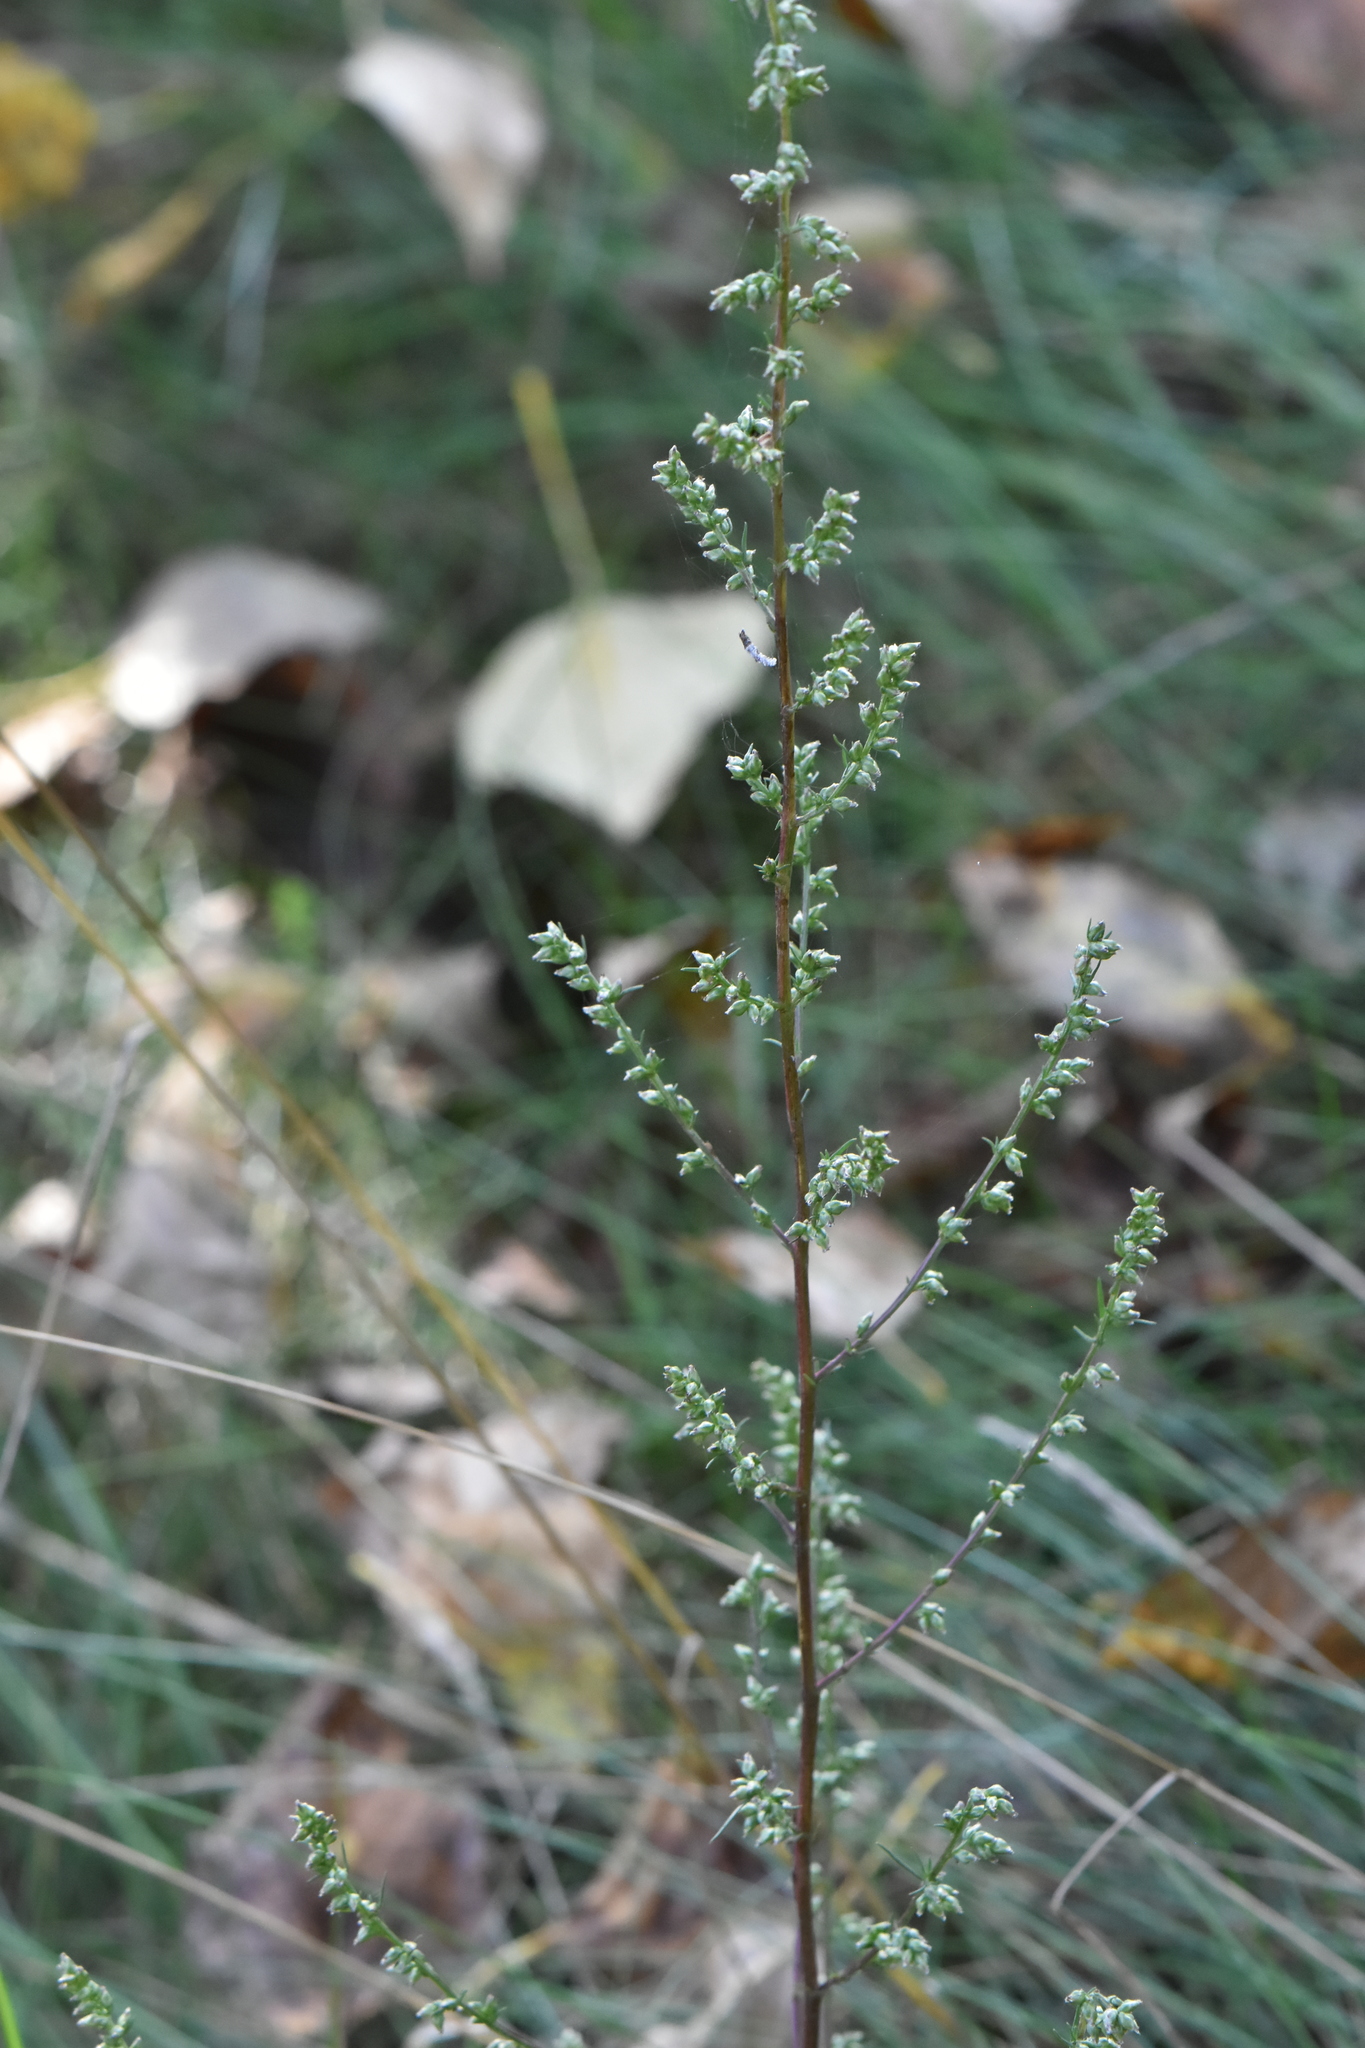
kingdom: Plantae
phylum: Tracheophyta
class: Magnoliopsida
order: Asterales
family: Asteraceae
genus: Artemisia
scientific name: Artemisia campestris
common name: Field wormwood
